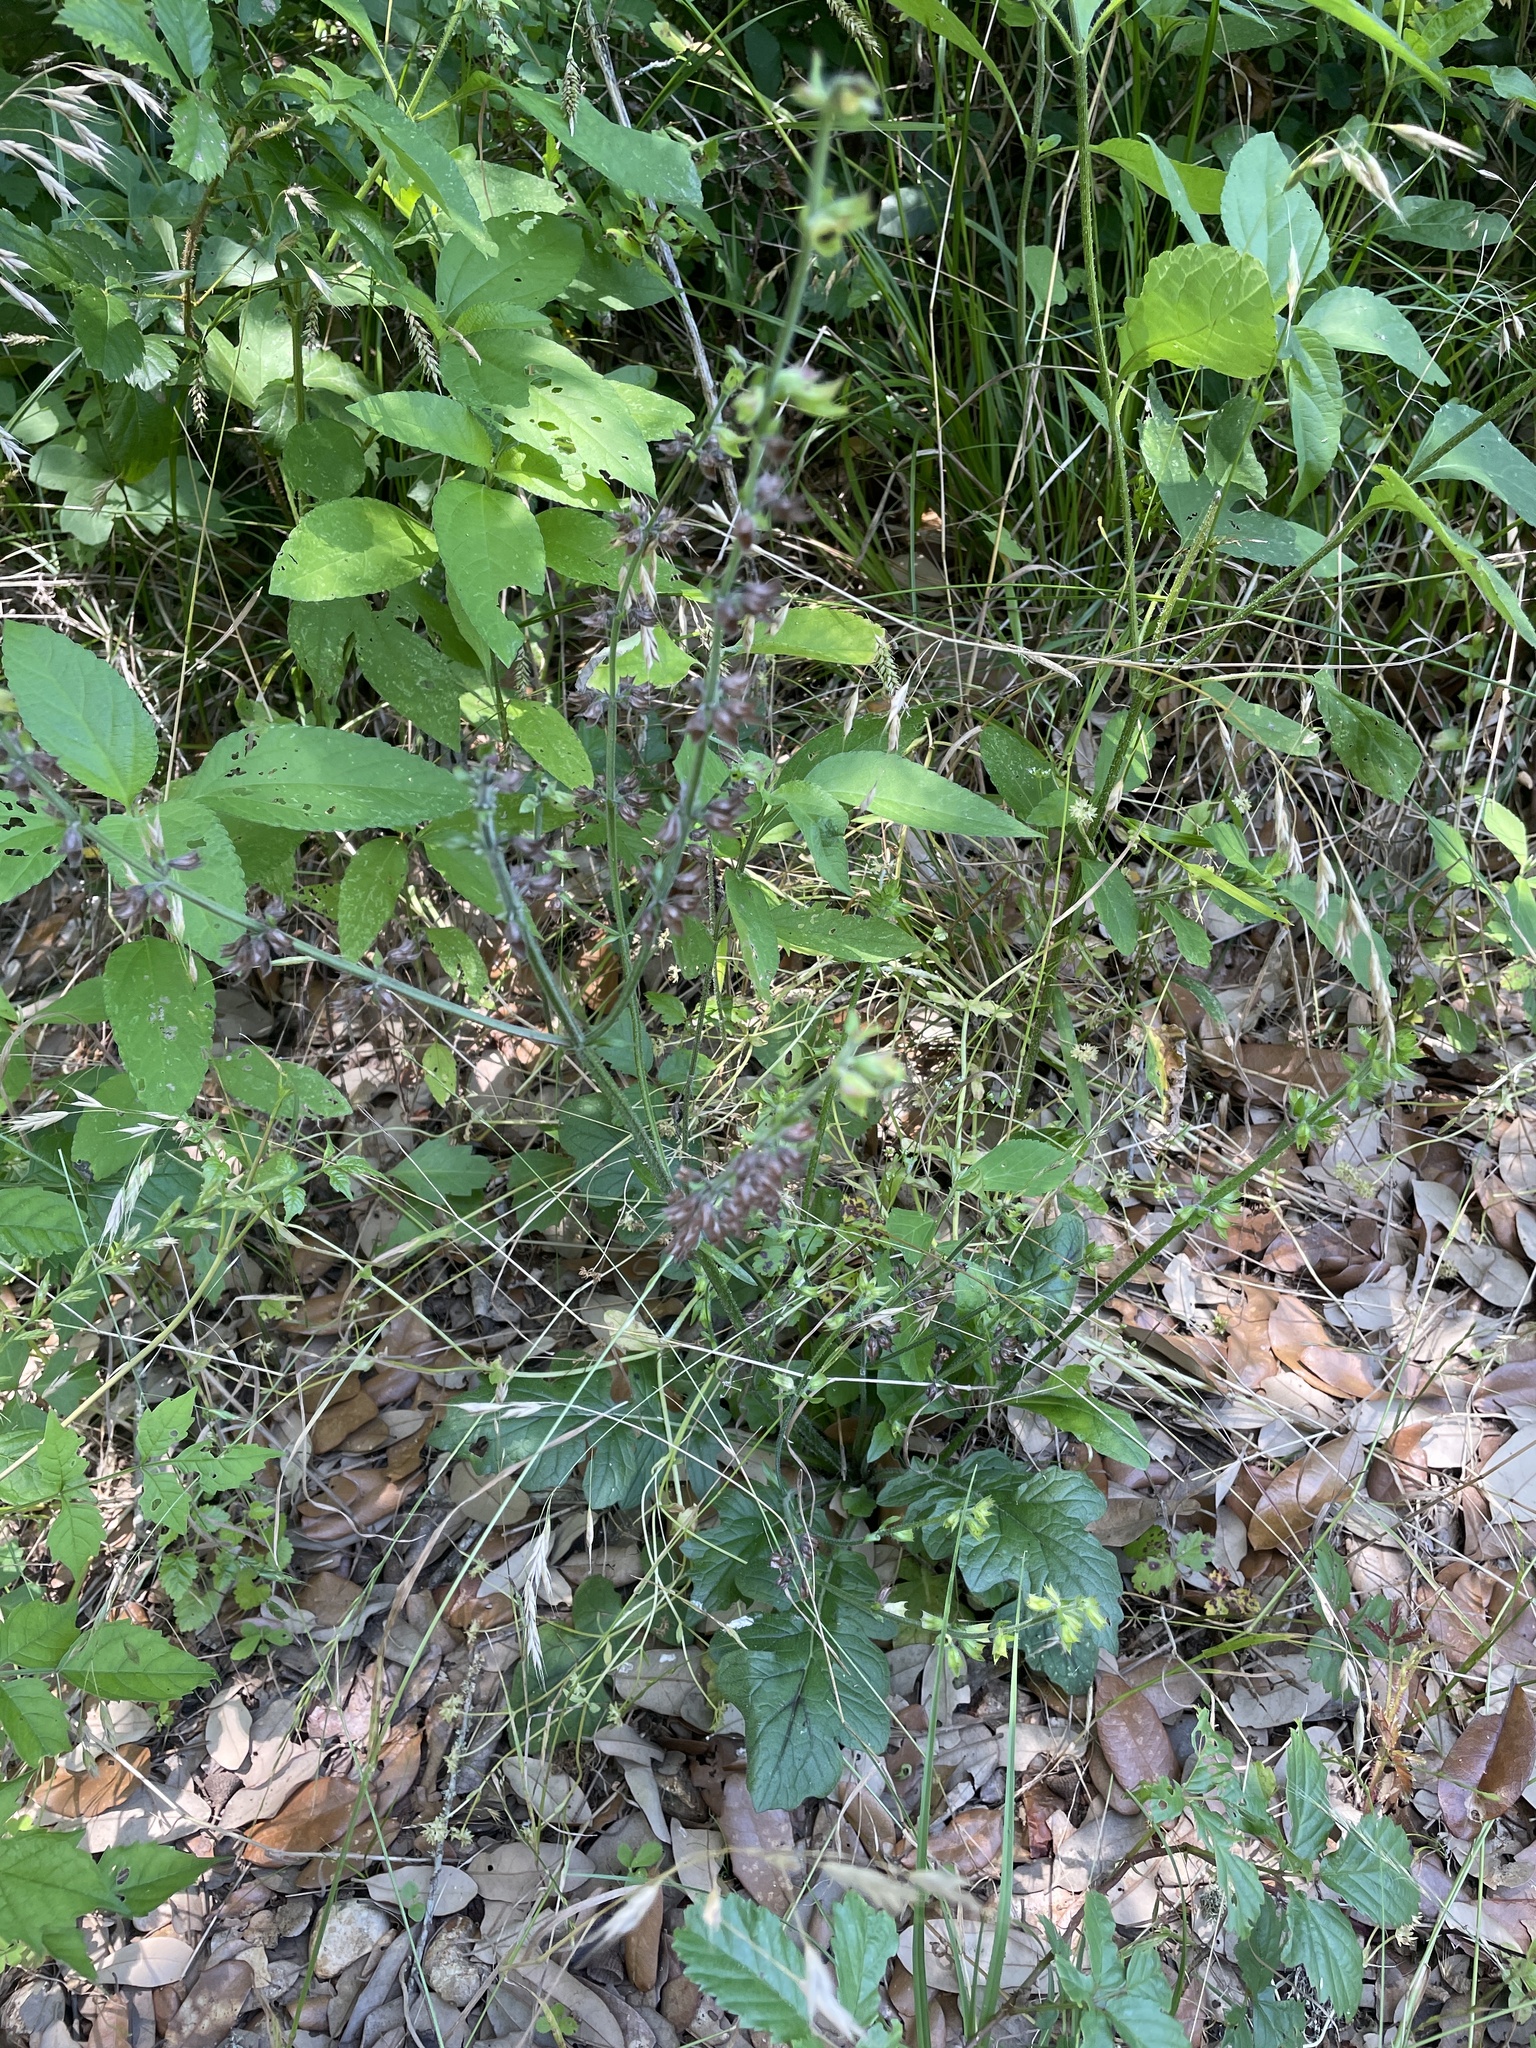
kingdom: Plantae
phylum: Tracheophyta
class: Magnoliopsida
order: Lamiales
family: Lamiaceae
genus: Salvia
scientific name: Salvia lyrata
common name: Cancerweed
